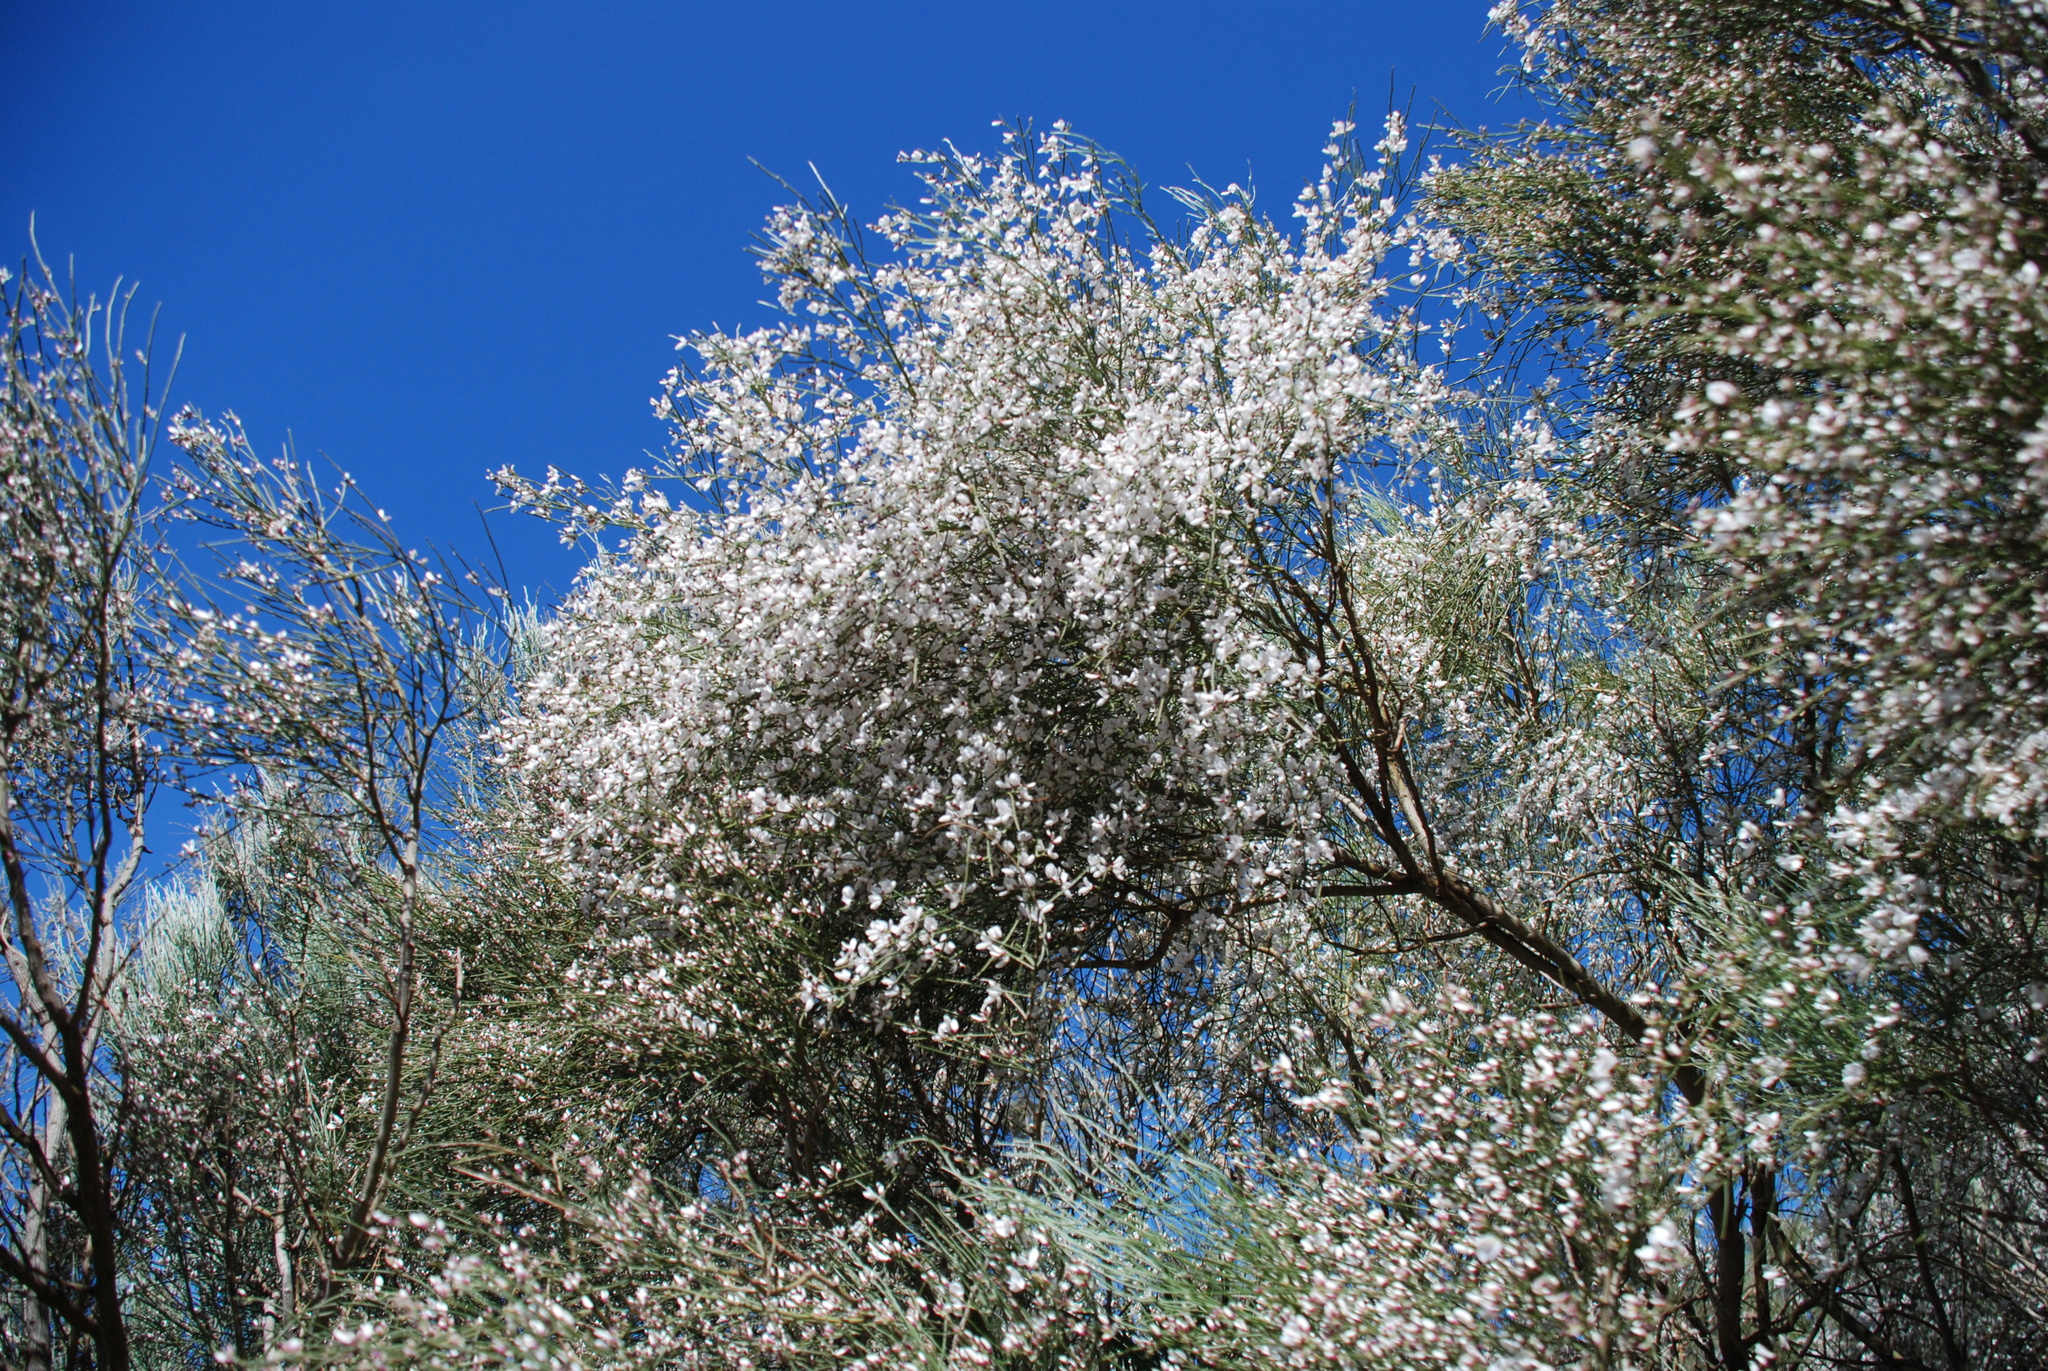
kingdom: Plantae
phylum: Tracheophyta
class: Magnoliopsida
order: Fabales
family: Fabaceae
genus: Retama
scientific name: Retama rhodorhizoides
